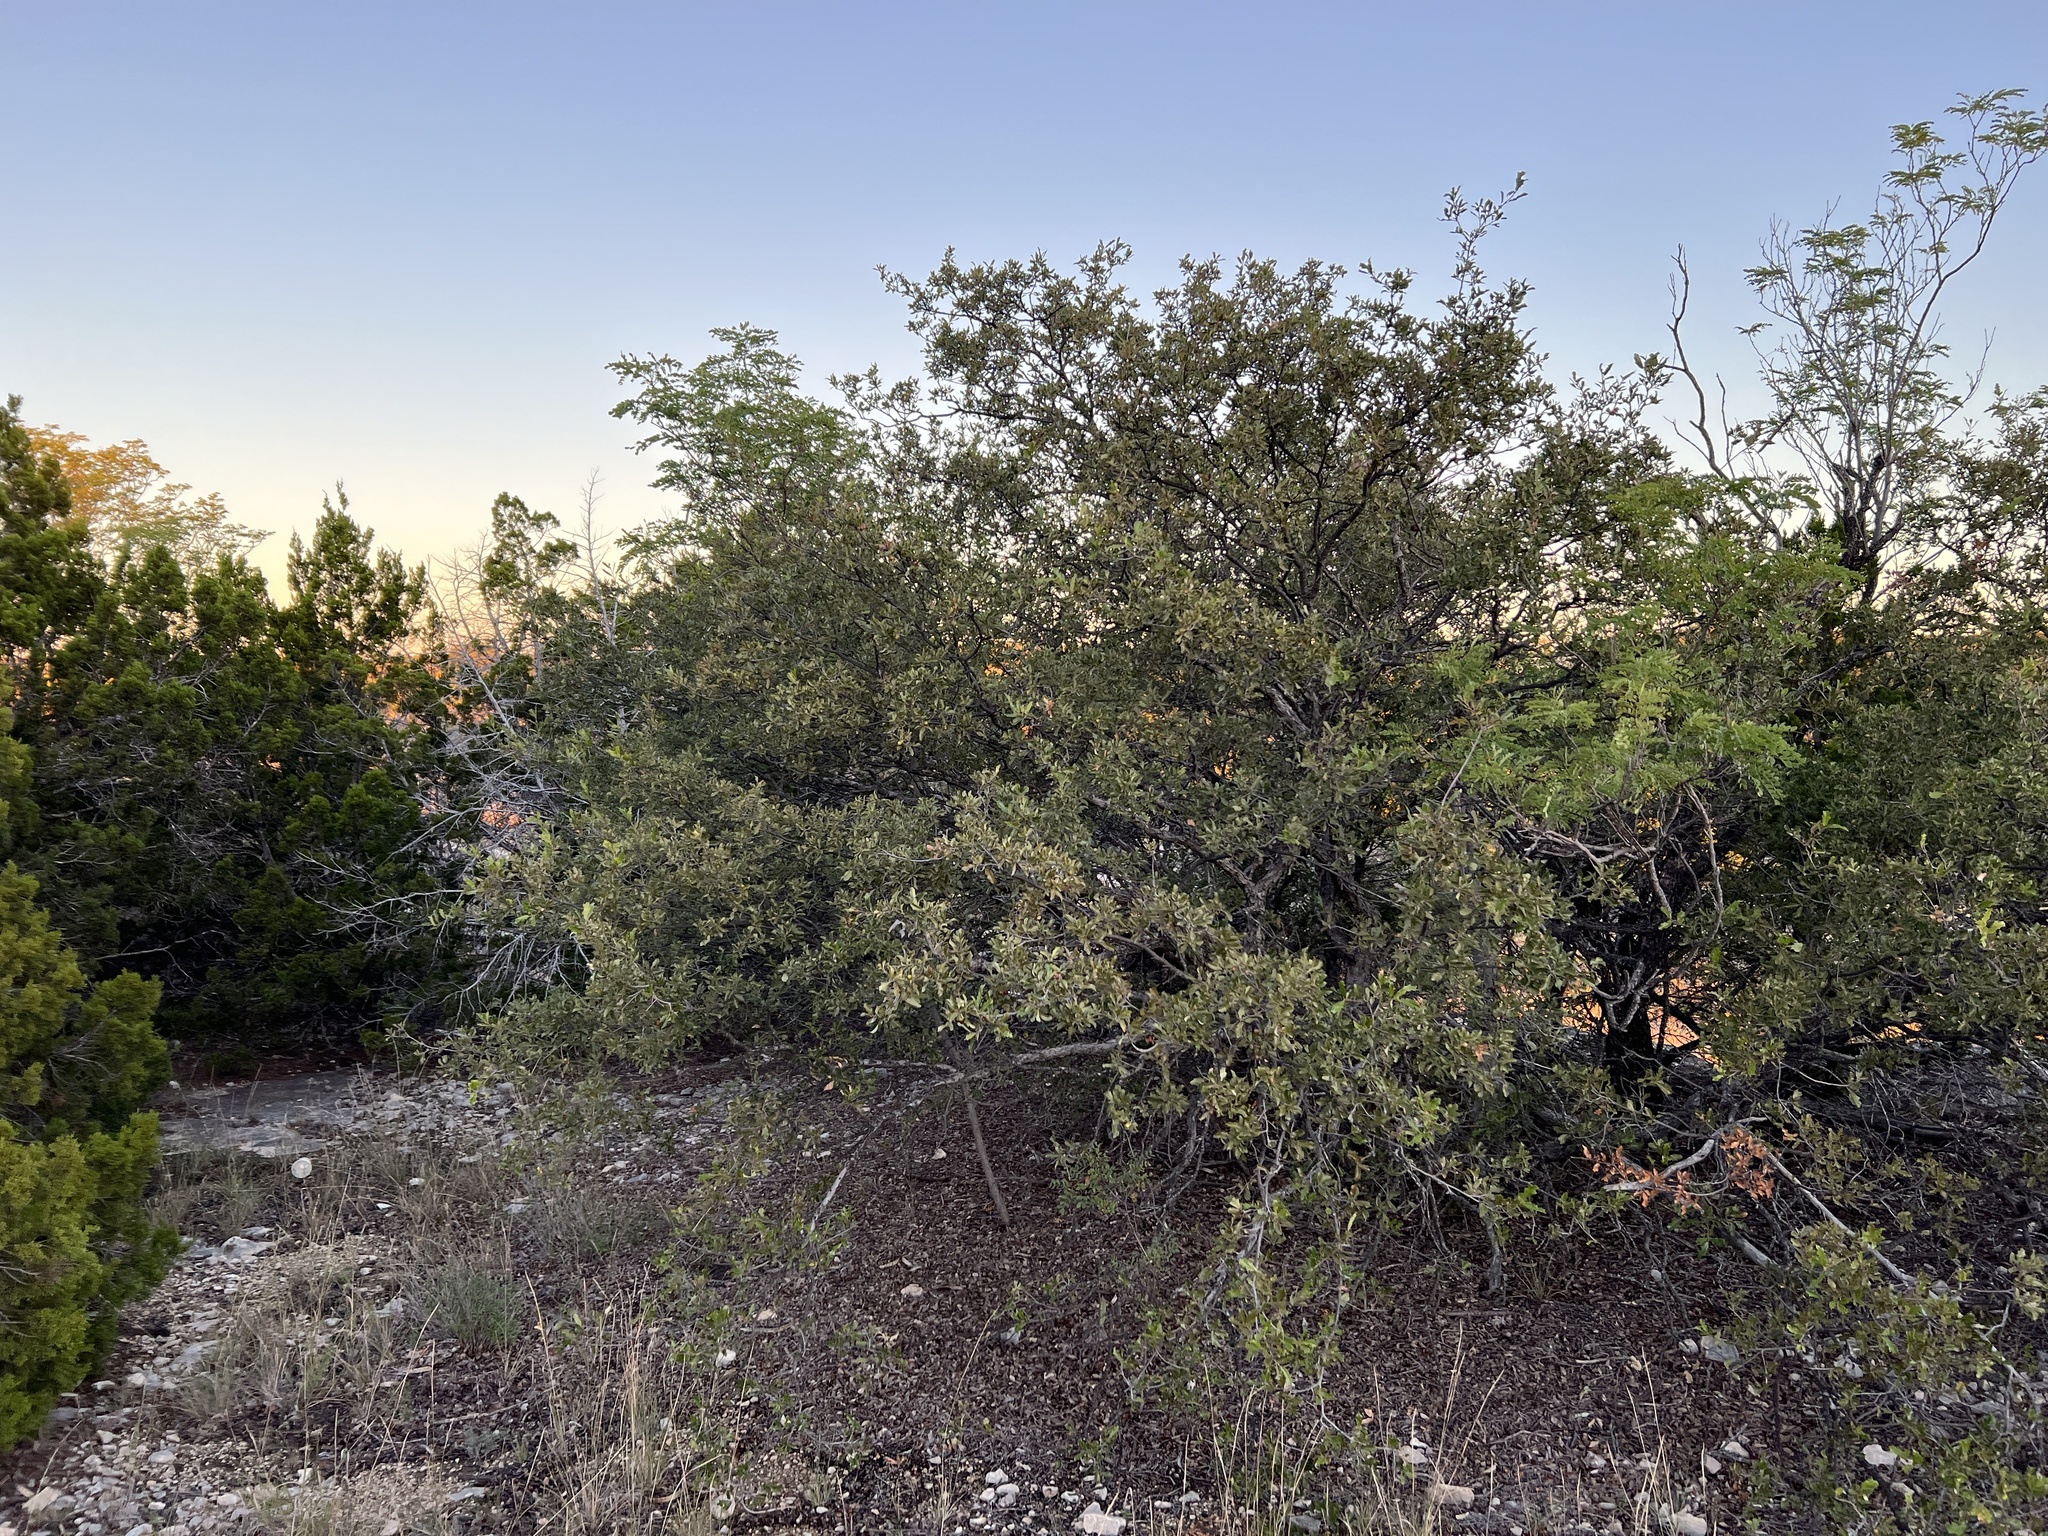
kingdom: Plantae
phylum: Tracheophyta
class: Magnoliopsida
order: Fagales
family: Fagaceae
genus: Quercus
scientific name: Quercus vaseyana
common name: Sandpaper oak
